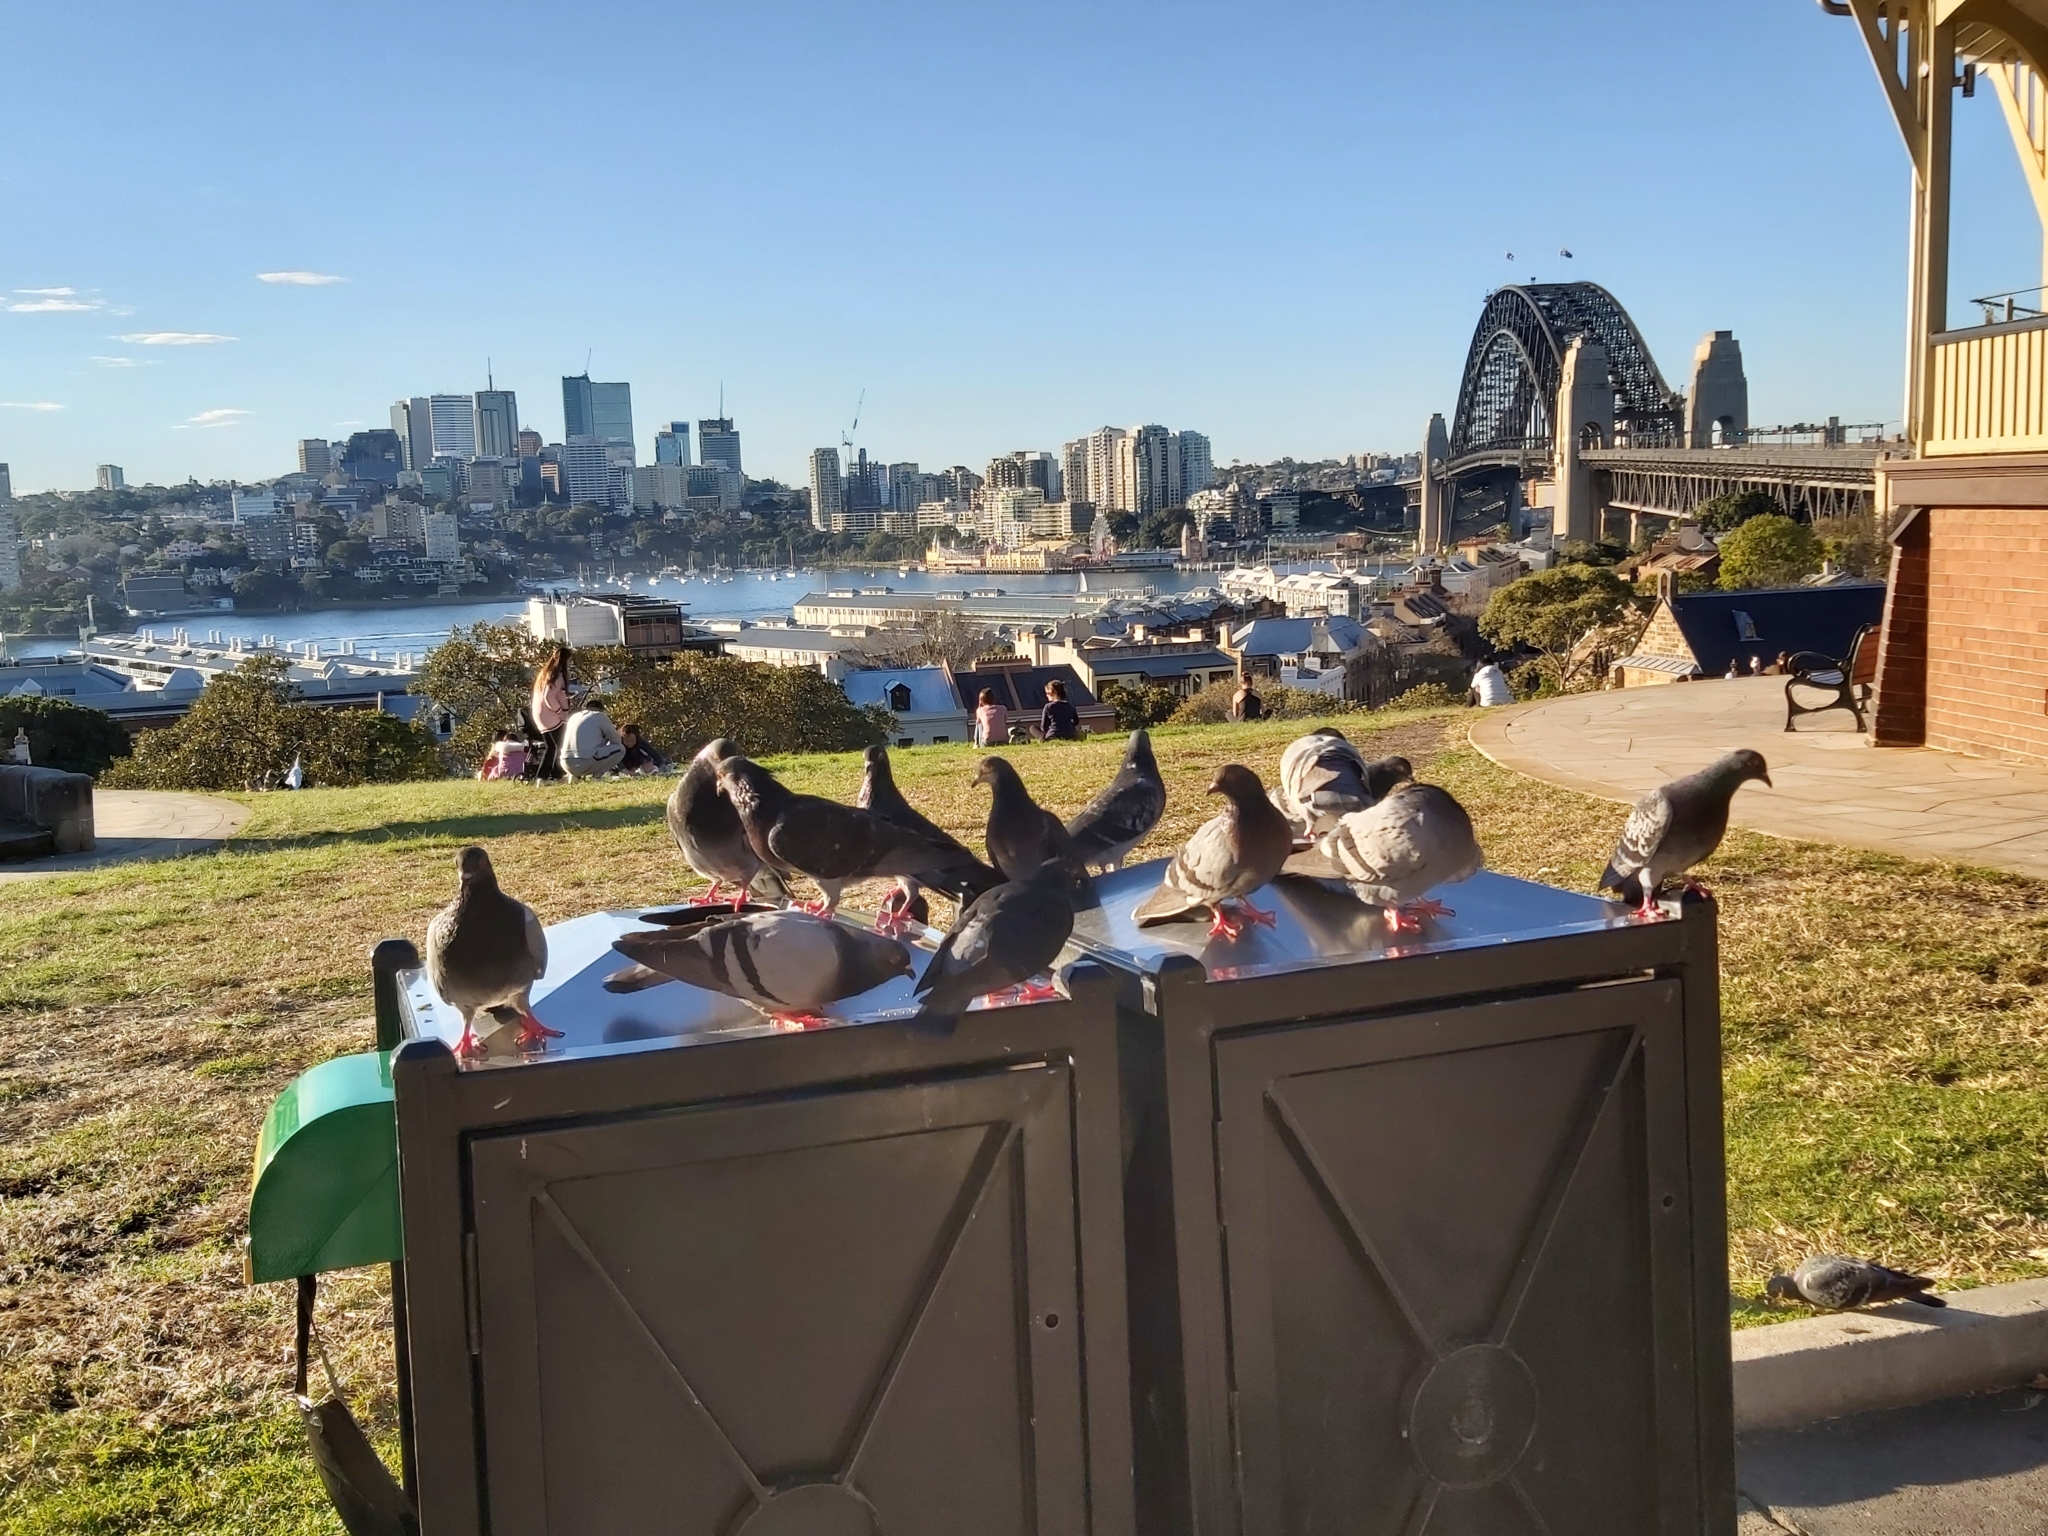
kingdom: Animalia
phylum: Chordata
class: Aves
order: Columbiformes
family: Columbidae
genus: Columba
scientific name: Columba livia
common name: Rock pigeon
